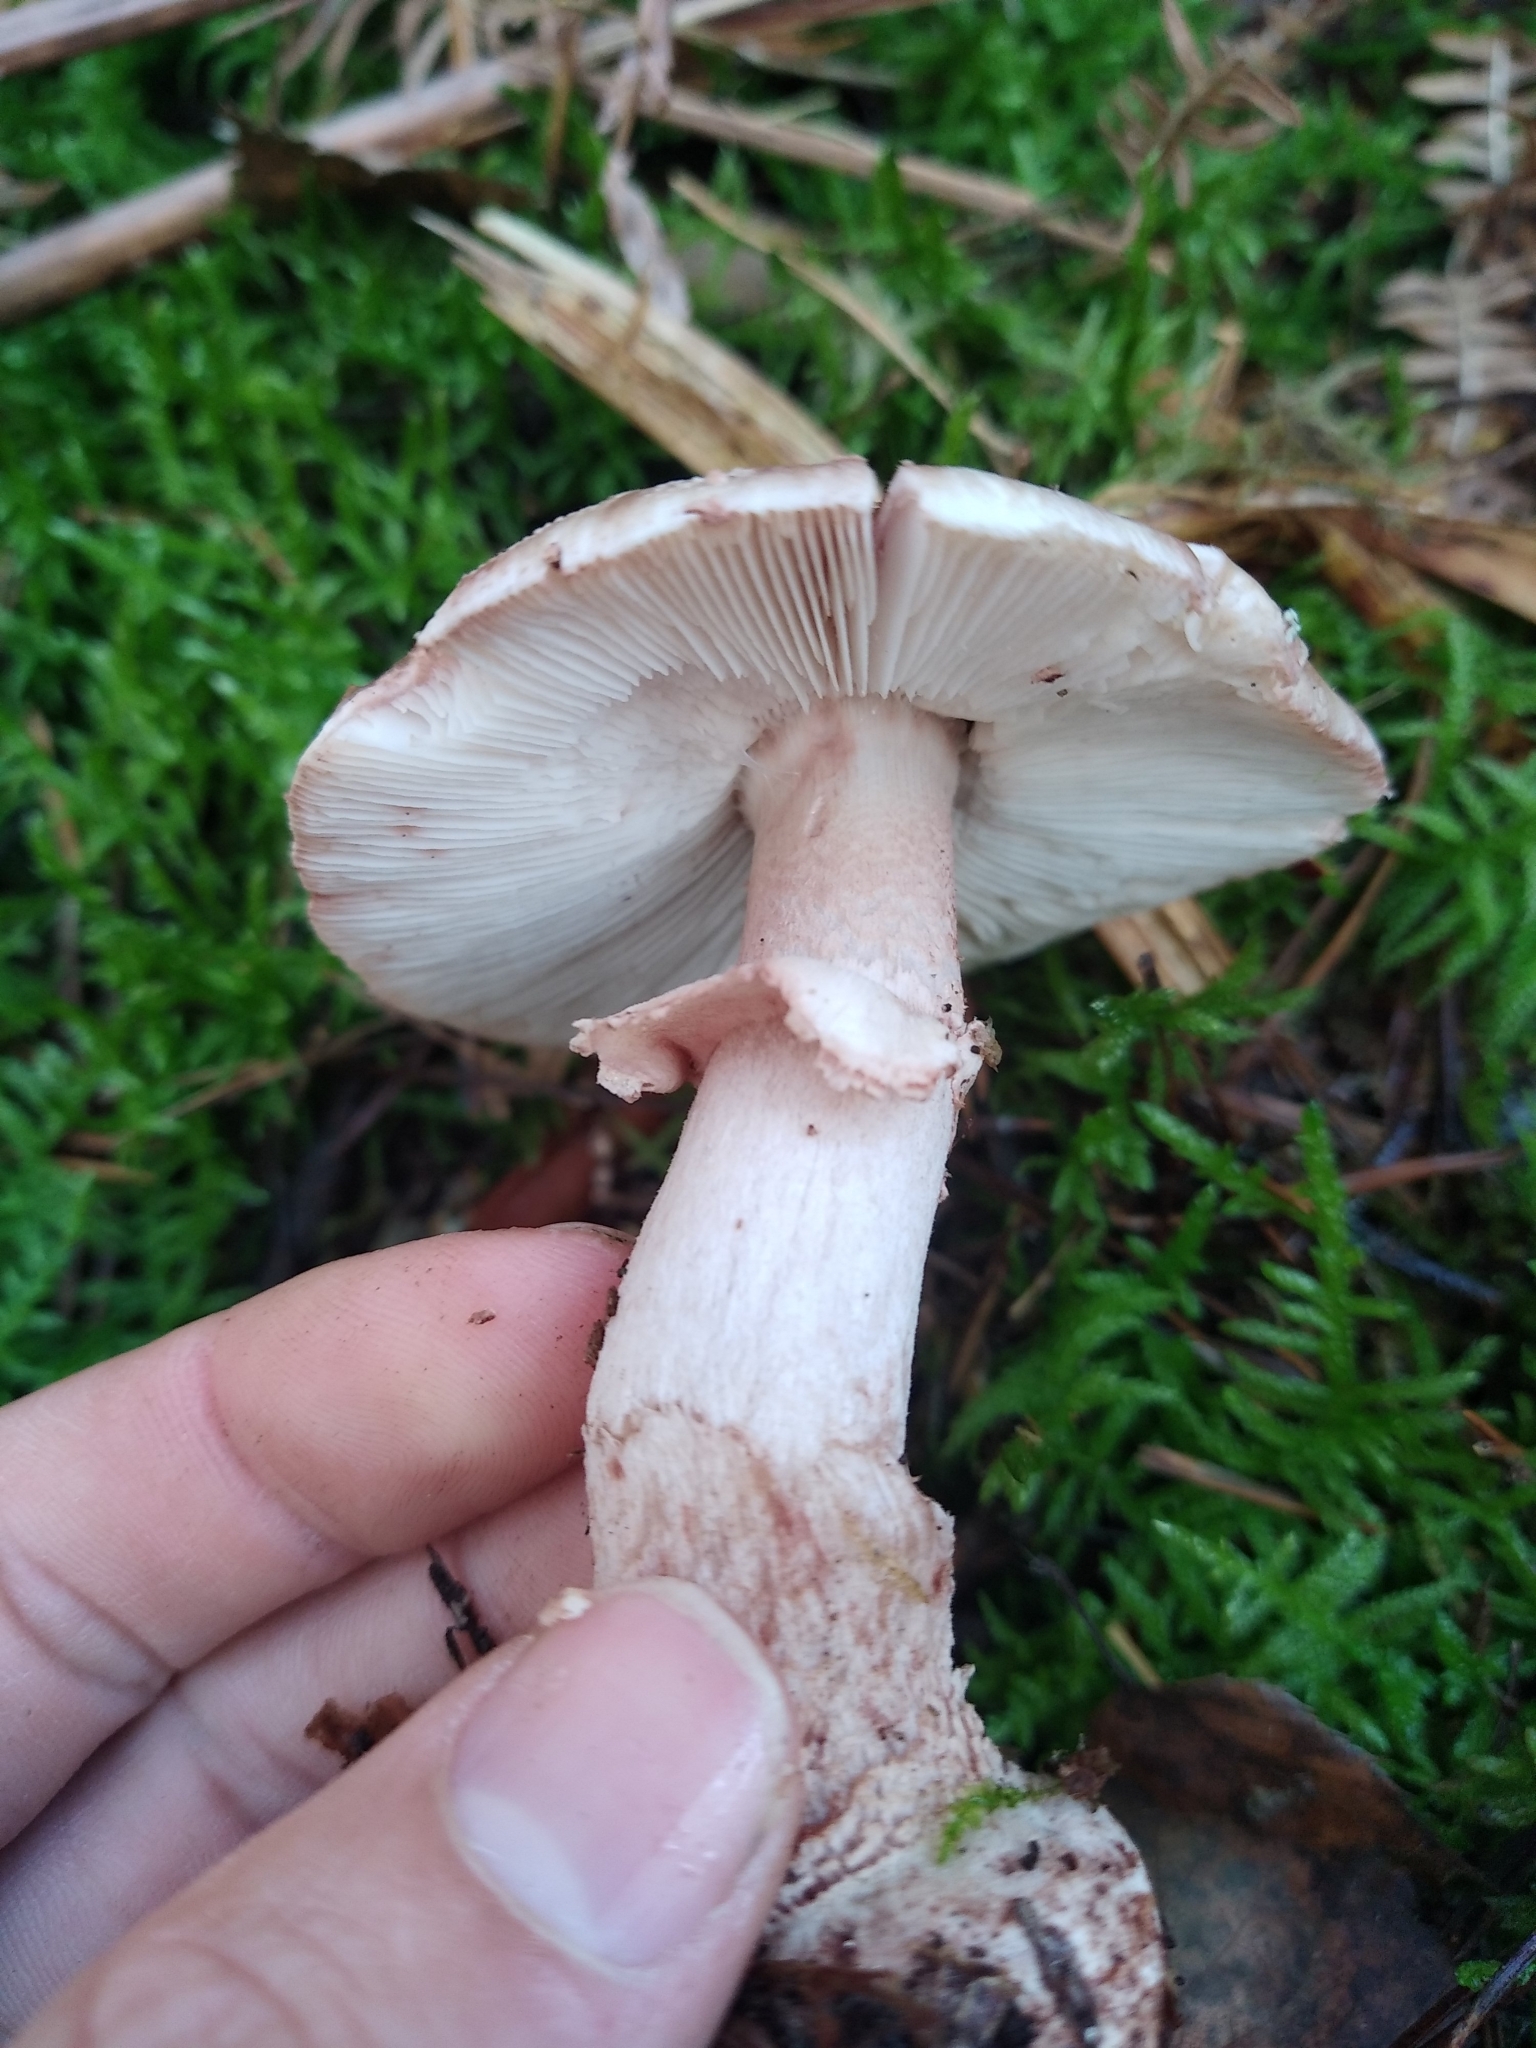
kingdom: Fungi
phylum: Basidiomycota
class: Agaricomycetes
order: Agaricales
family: Amanitaceae
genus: Amanita
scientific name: Amanita rubescens
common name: Blusher
